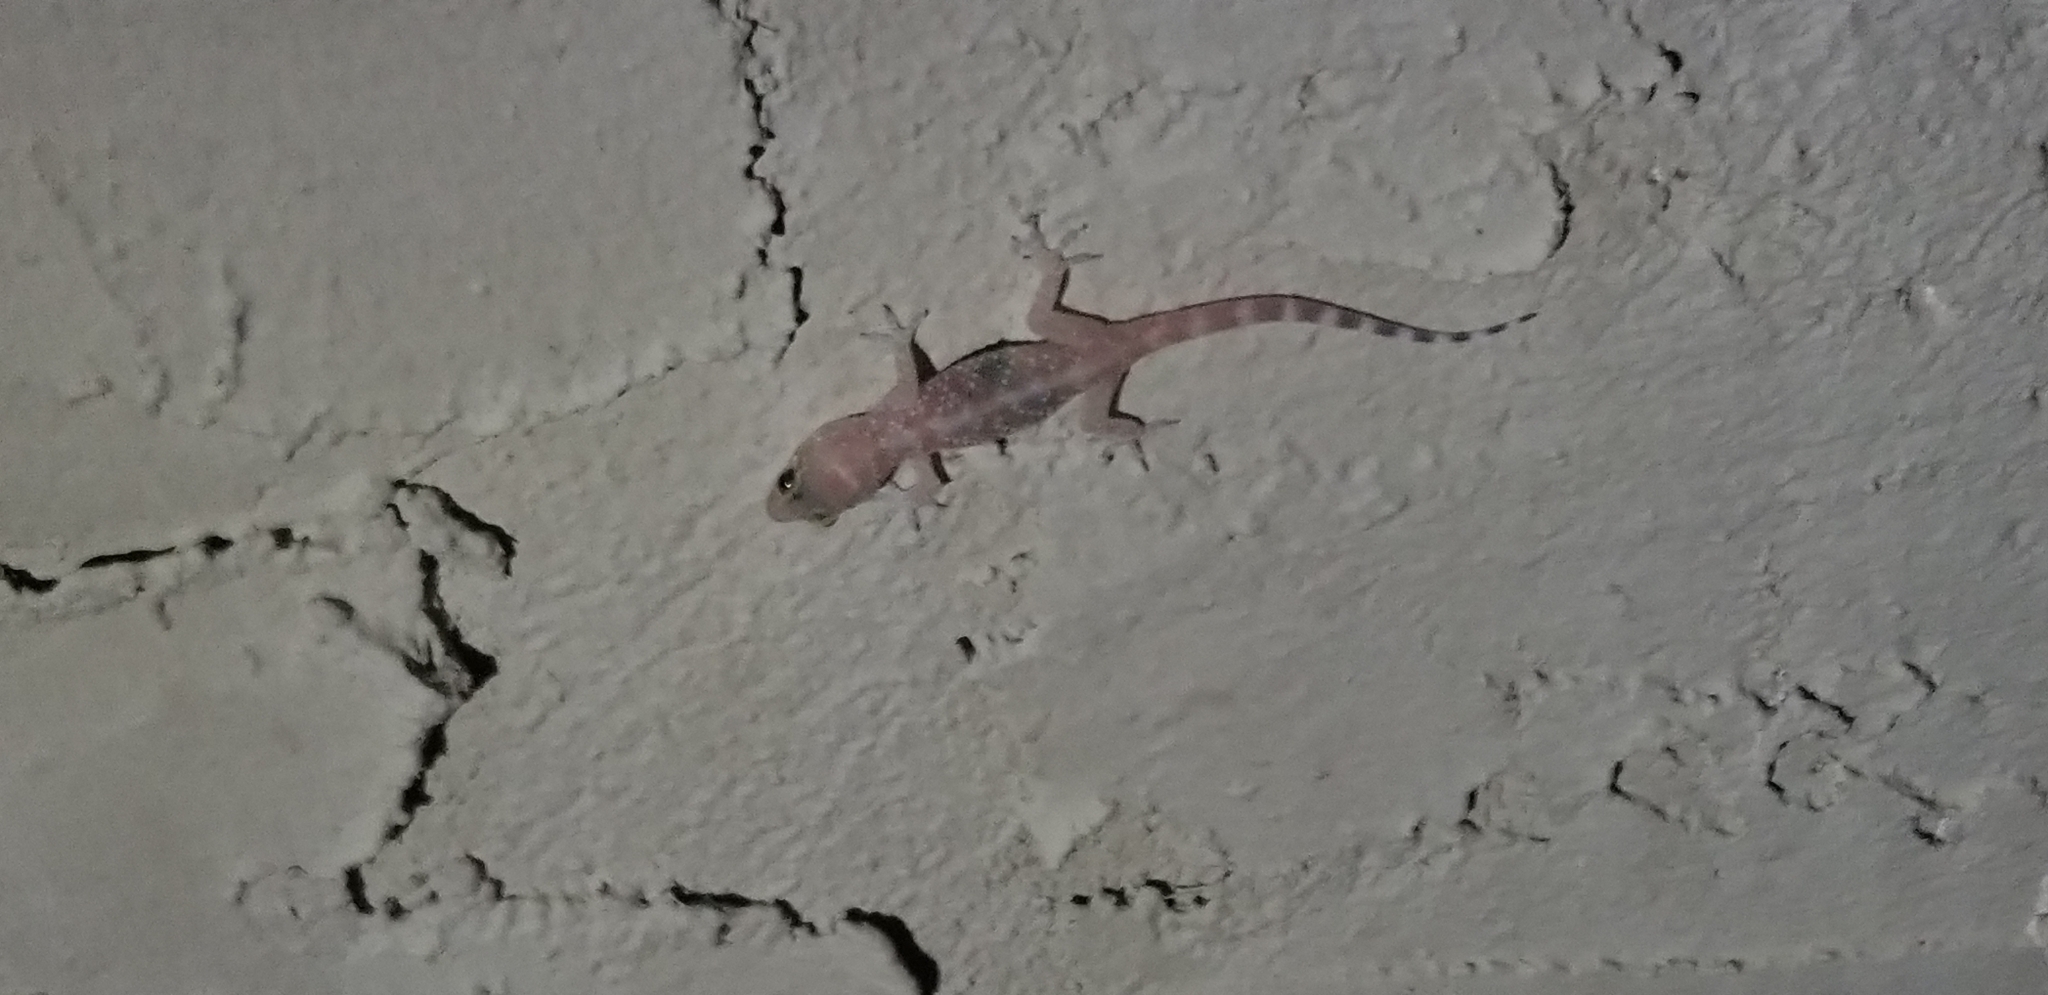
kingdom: Animalia
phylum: Chordata
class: Squamata
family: Gekkonidae
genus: Hemidactylus
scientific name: Hemidactylus turcicus
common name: Turkish gecko
